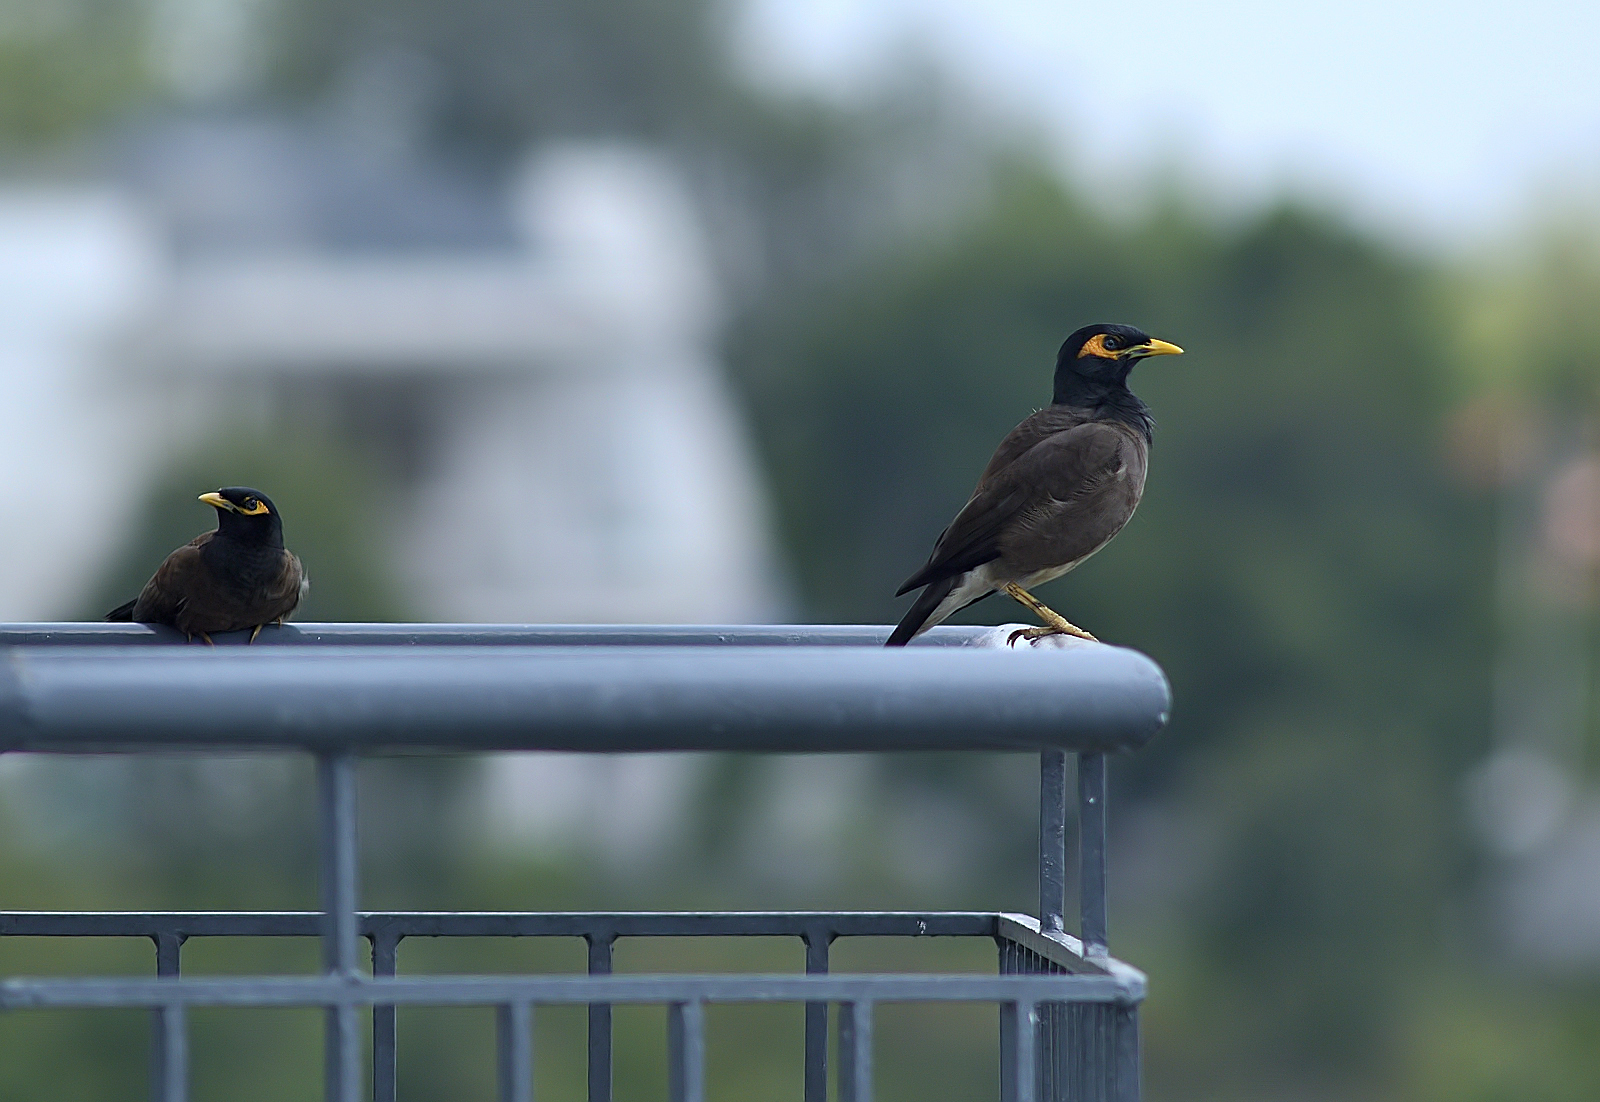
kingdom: Animalia
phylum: Chordata
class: Aves
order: Passeriformes
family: Sturnidae
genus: Acridotheres
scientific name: Acridotheres tristis
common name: Common myna
